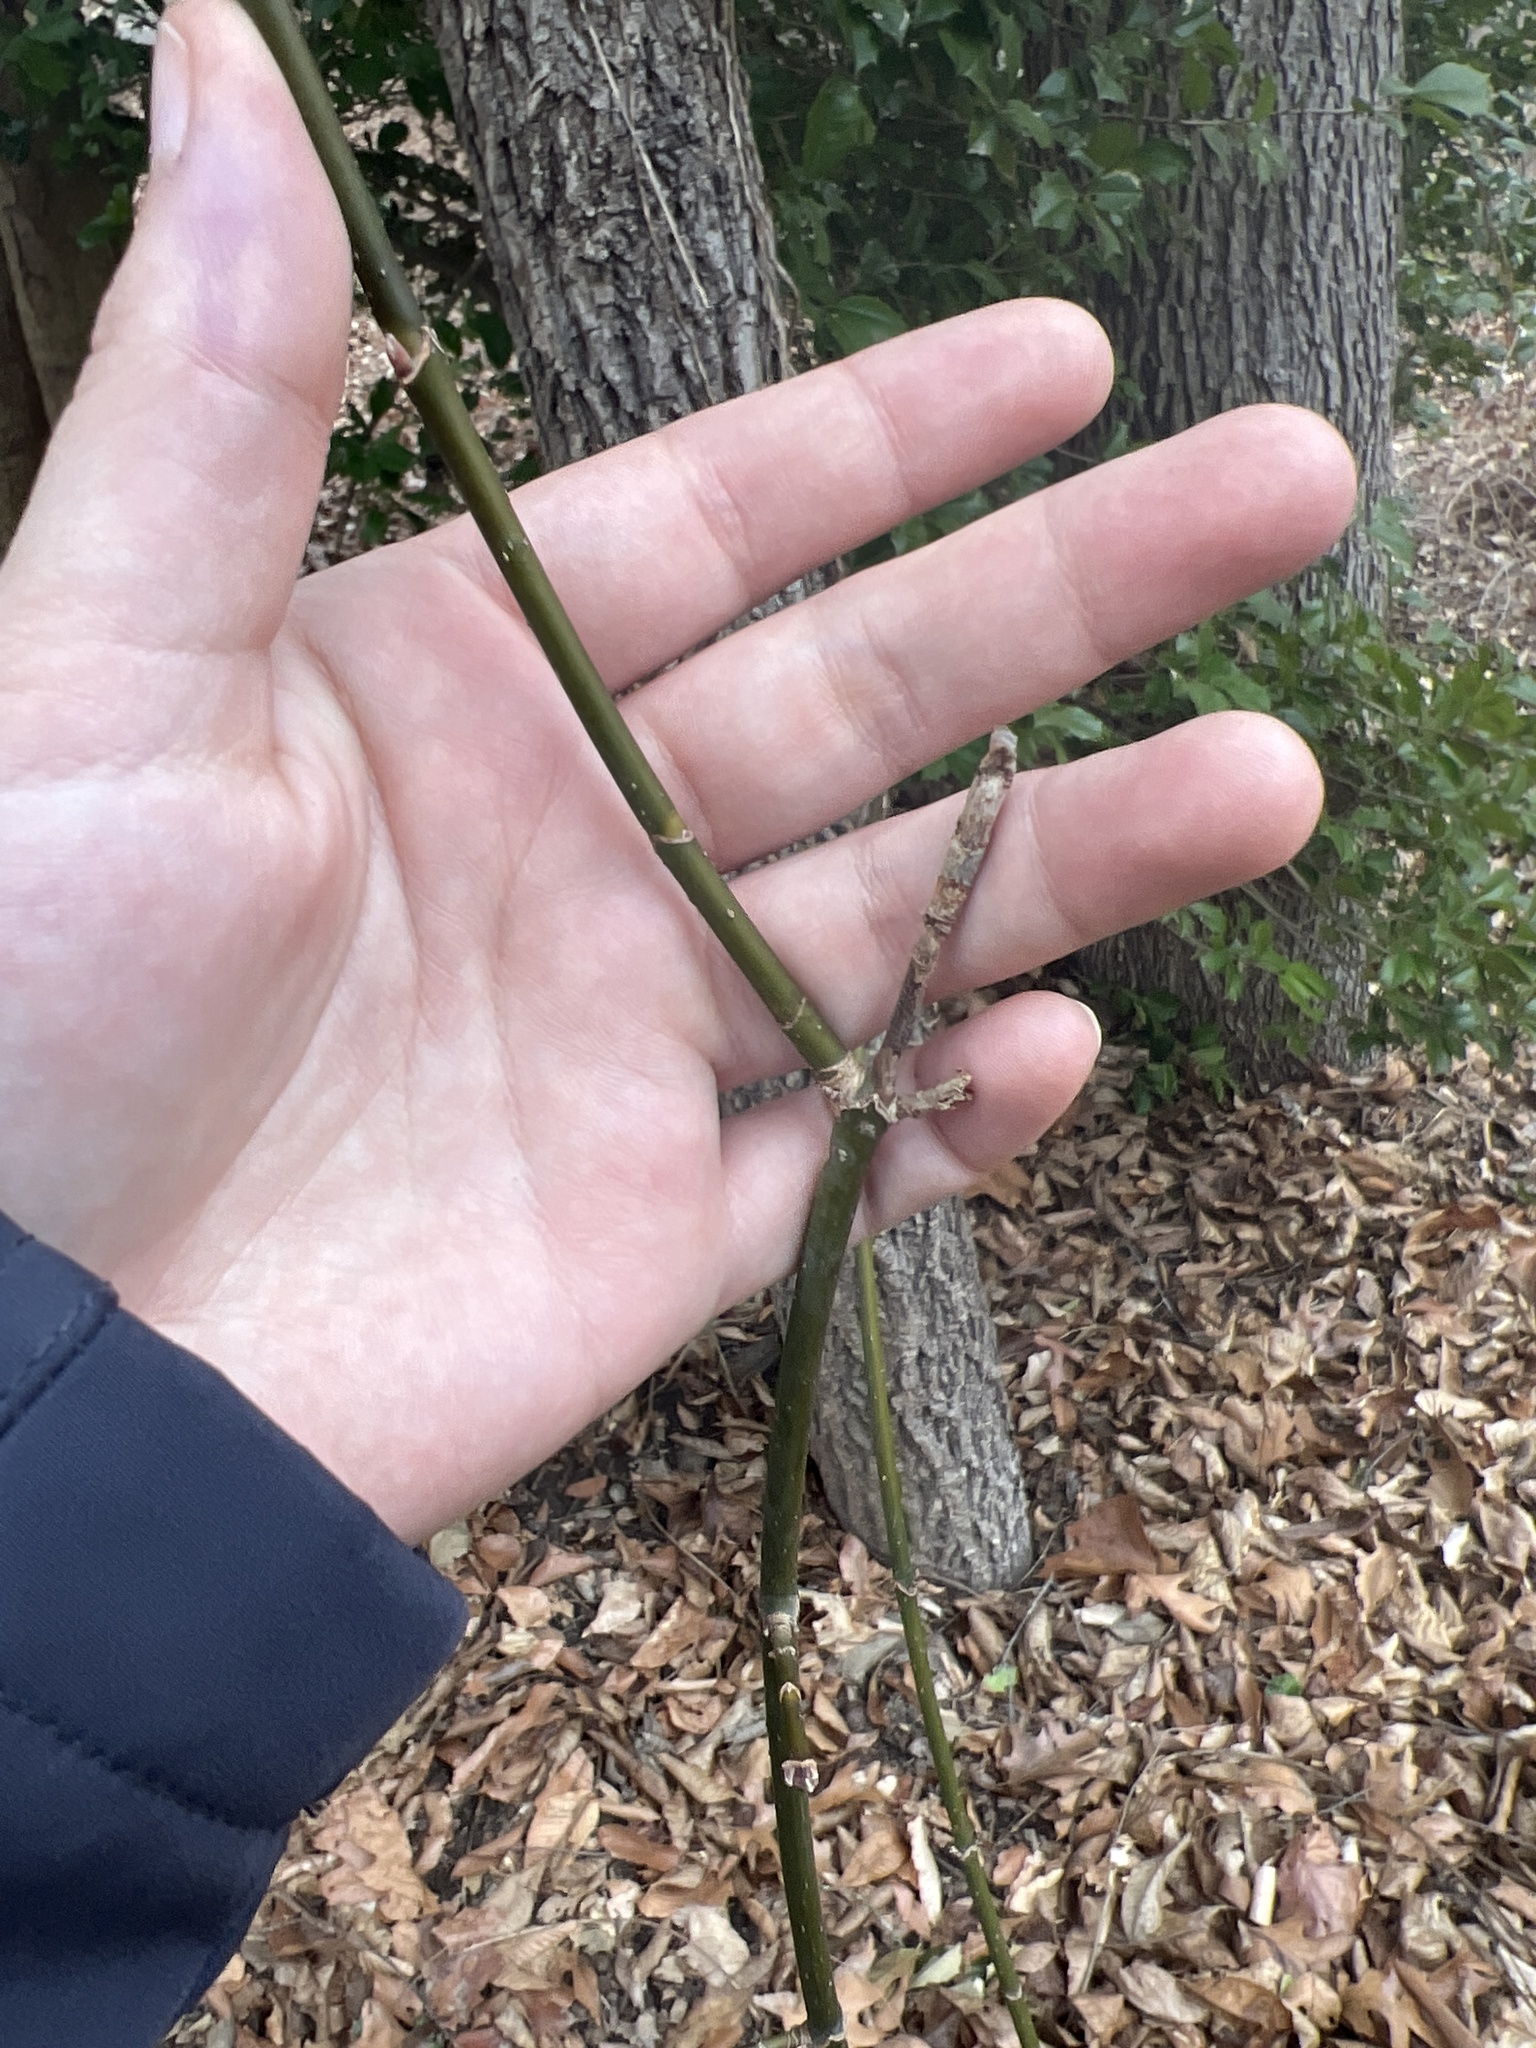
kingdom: Plantae
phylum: Tracheophyta
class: Magnoliopsida
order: Sapindales
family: Sapindaceae
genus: Acer
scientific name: Acer negundo
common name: Ashleaf maple
